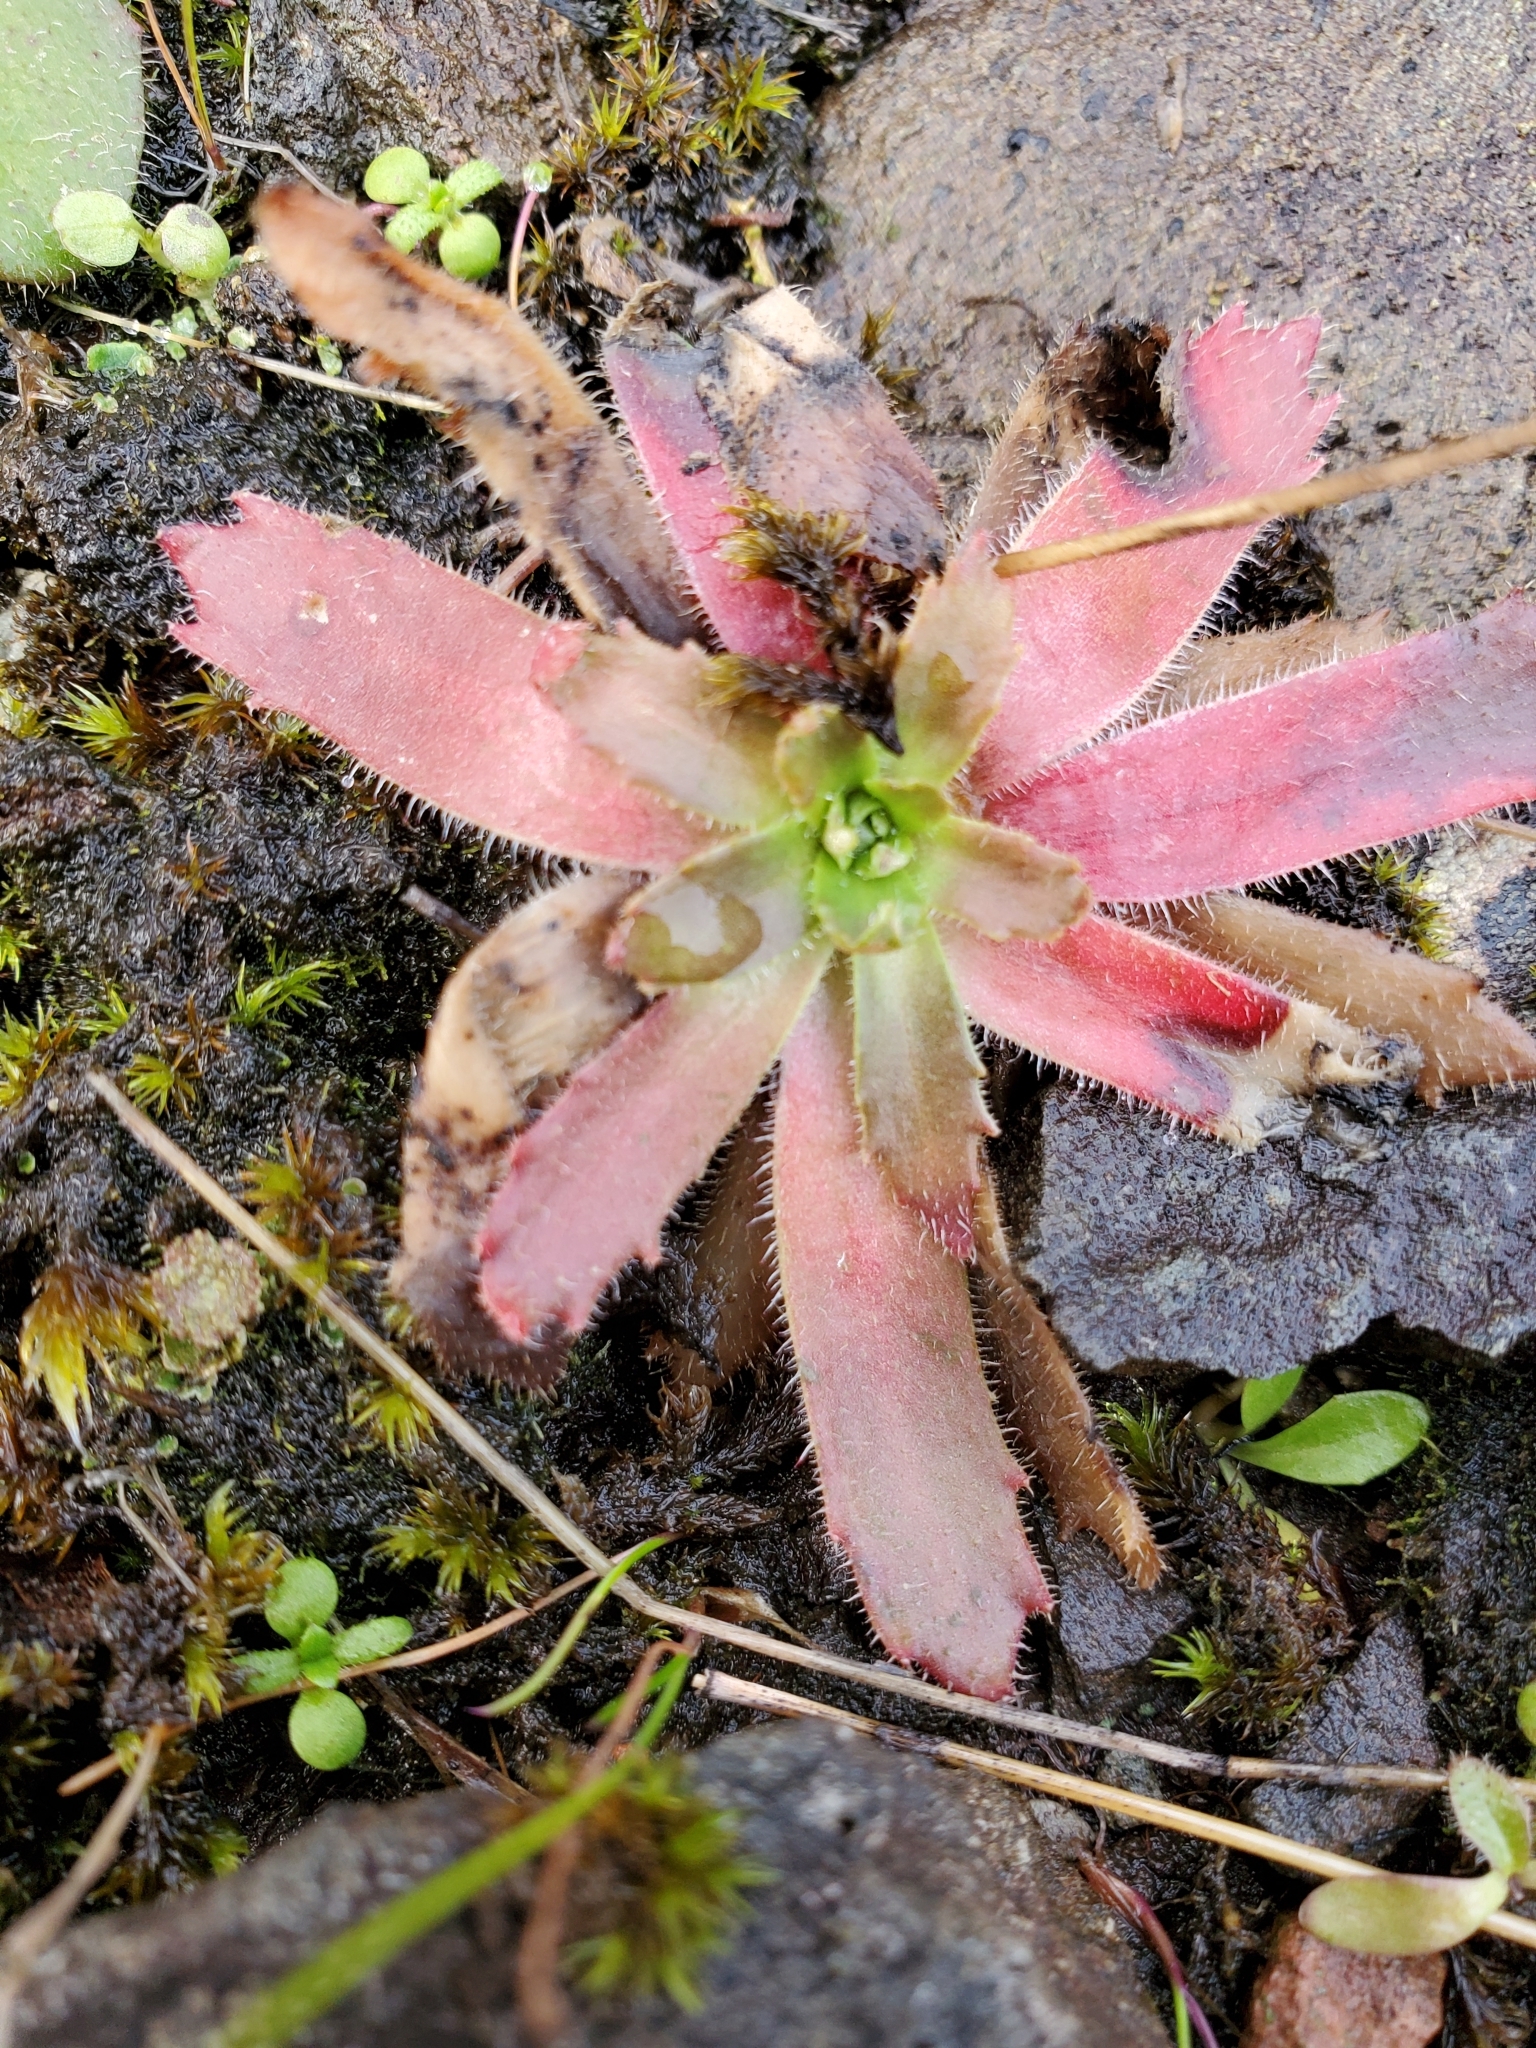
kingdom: Plantae
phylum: Tracheophyta
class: Magnoliopsida
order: Saxifragales
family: Saxifragaceae
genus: Micranthes
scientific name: Micranthes ferruginea
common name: Rusty saxifrage
